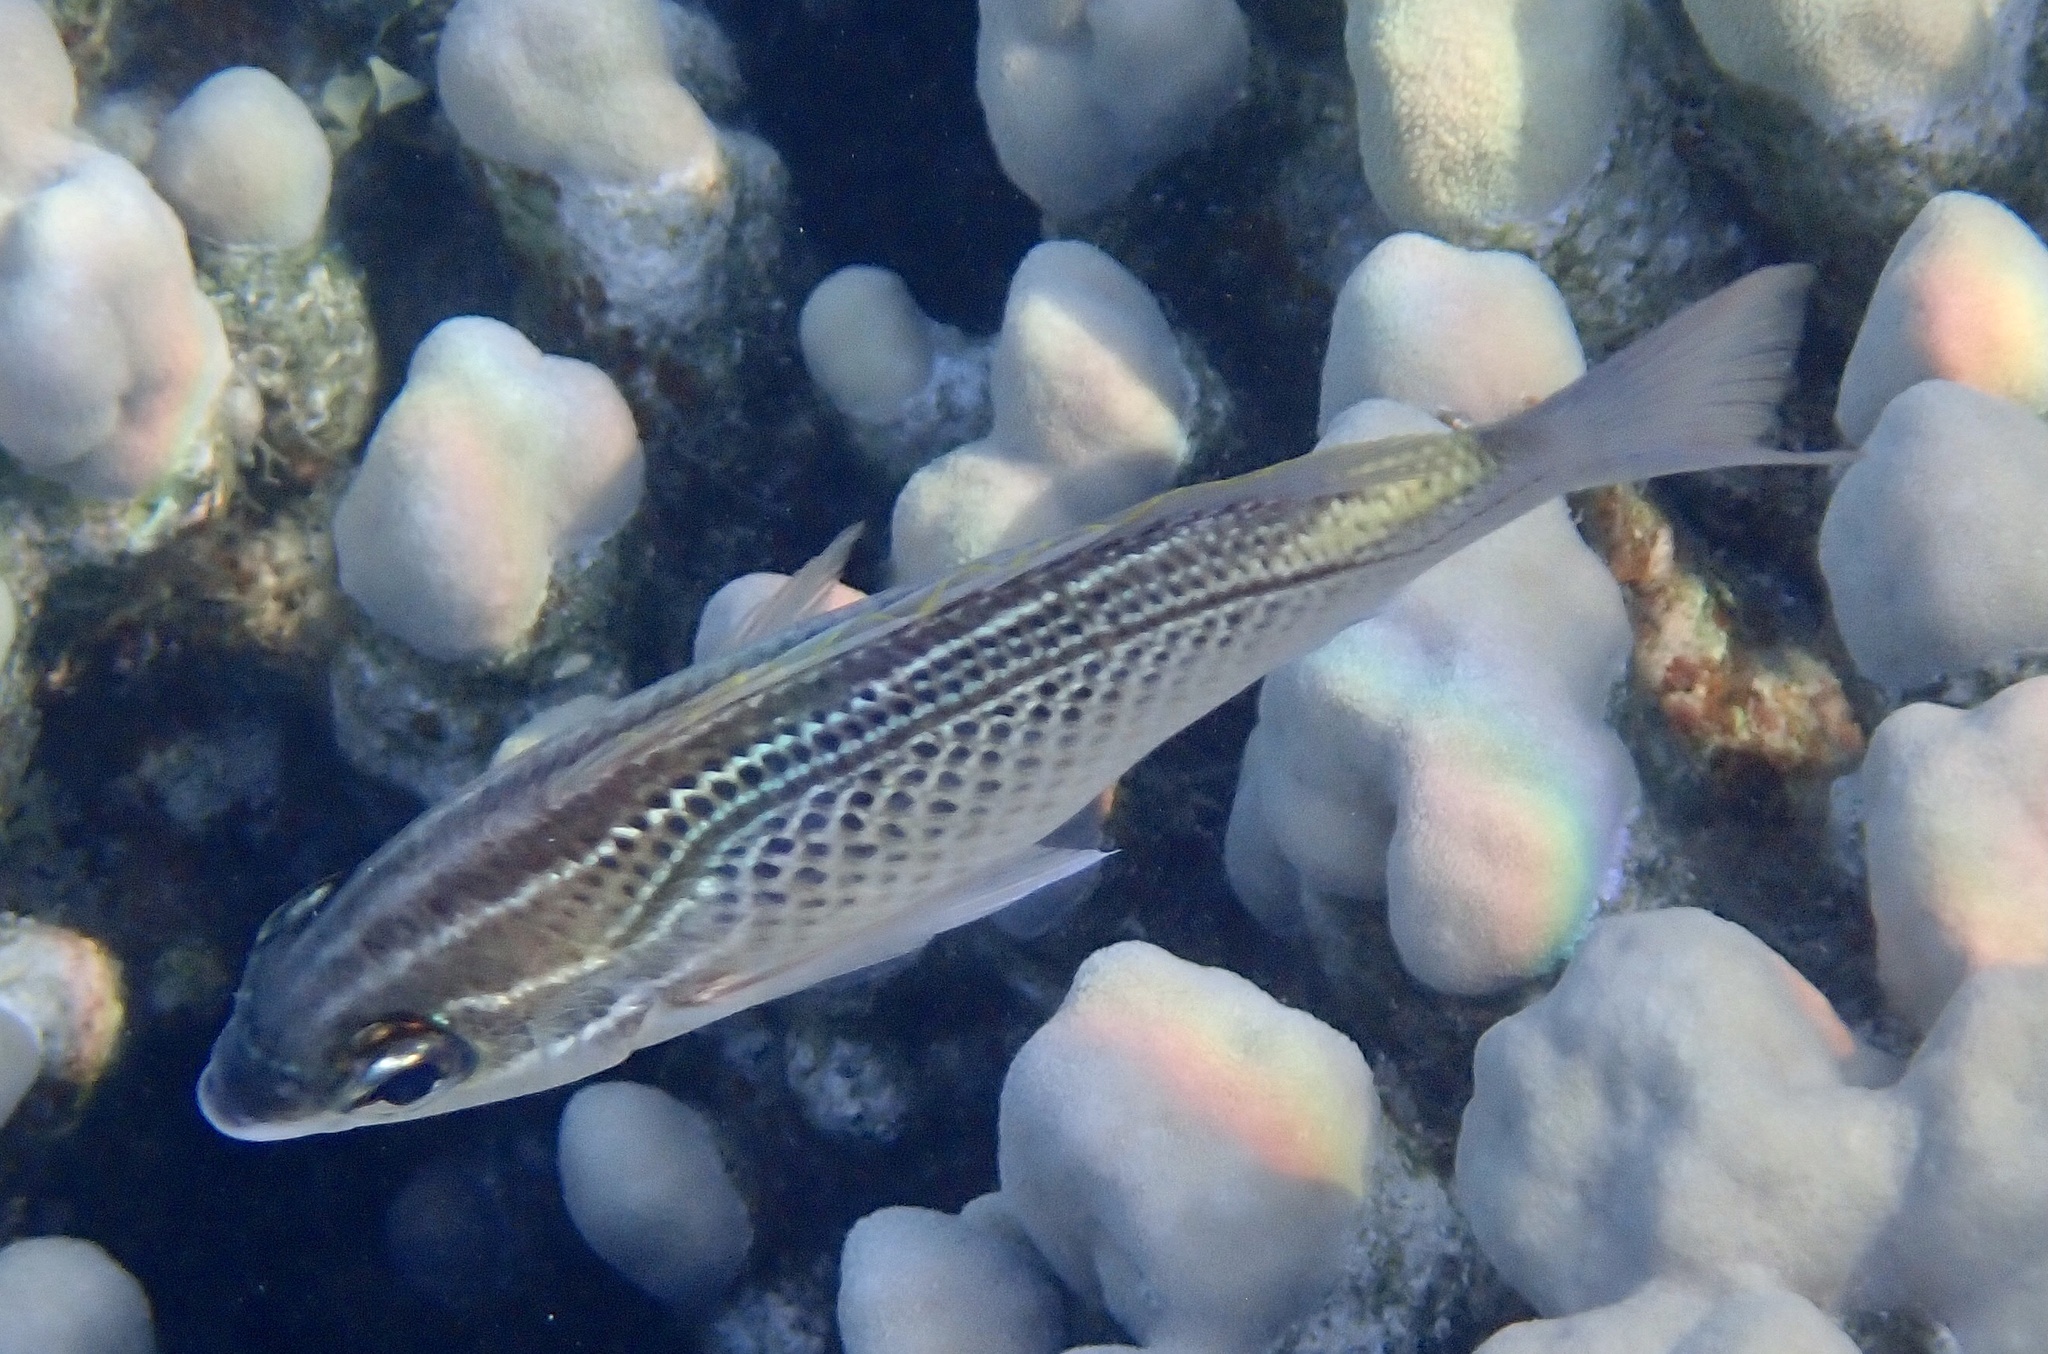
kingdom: Animalia
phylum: Chordata
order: Perciformes
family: Nemipteridae
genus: Scolopsis
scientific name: Scolopsis ghanam
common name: Arabian monocle bream
